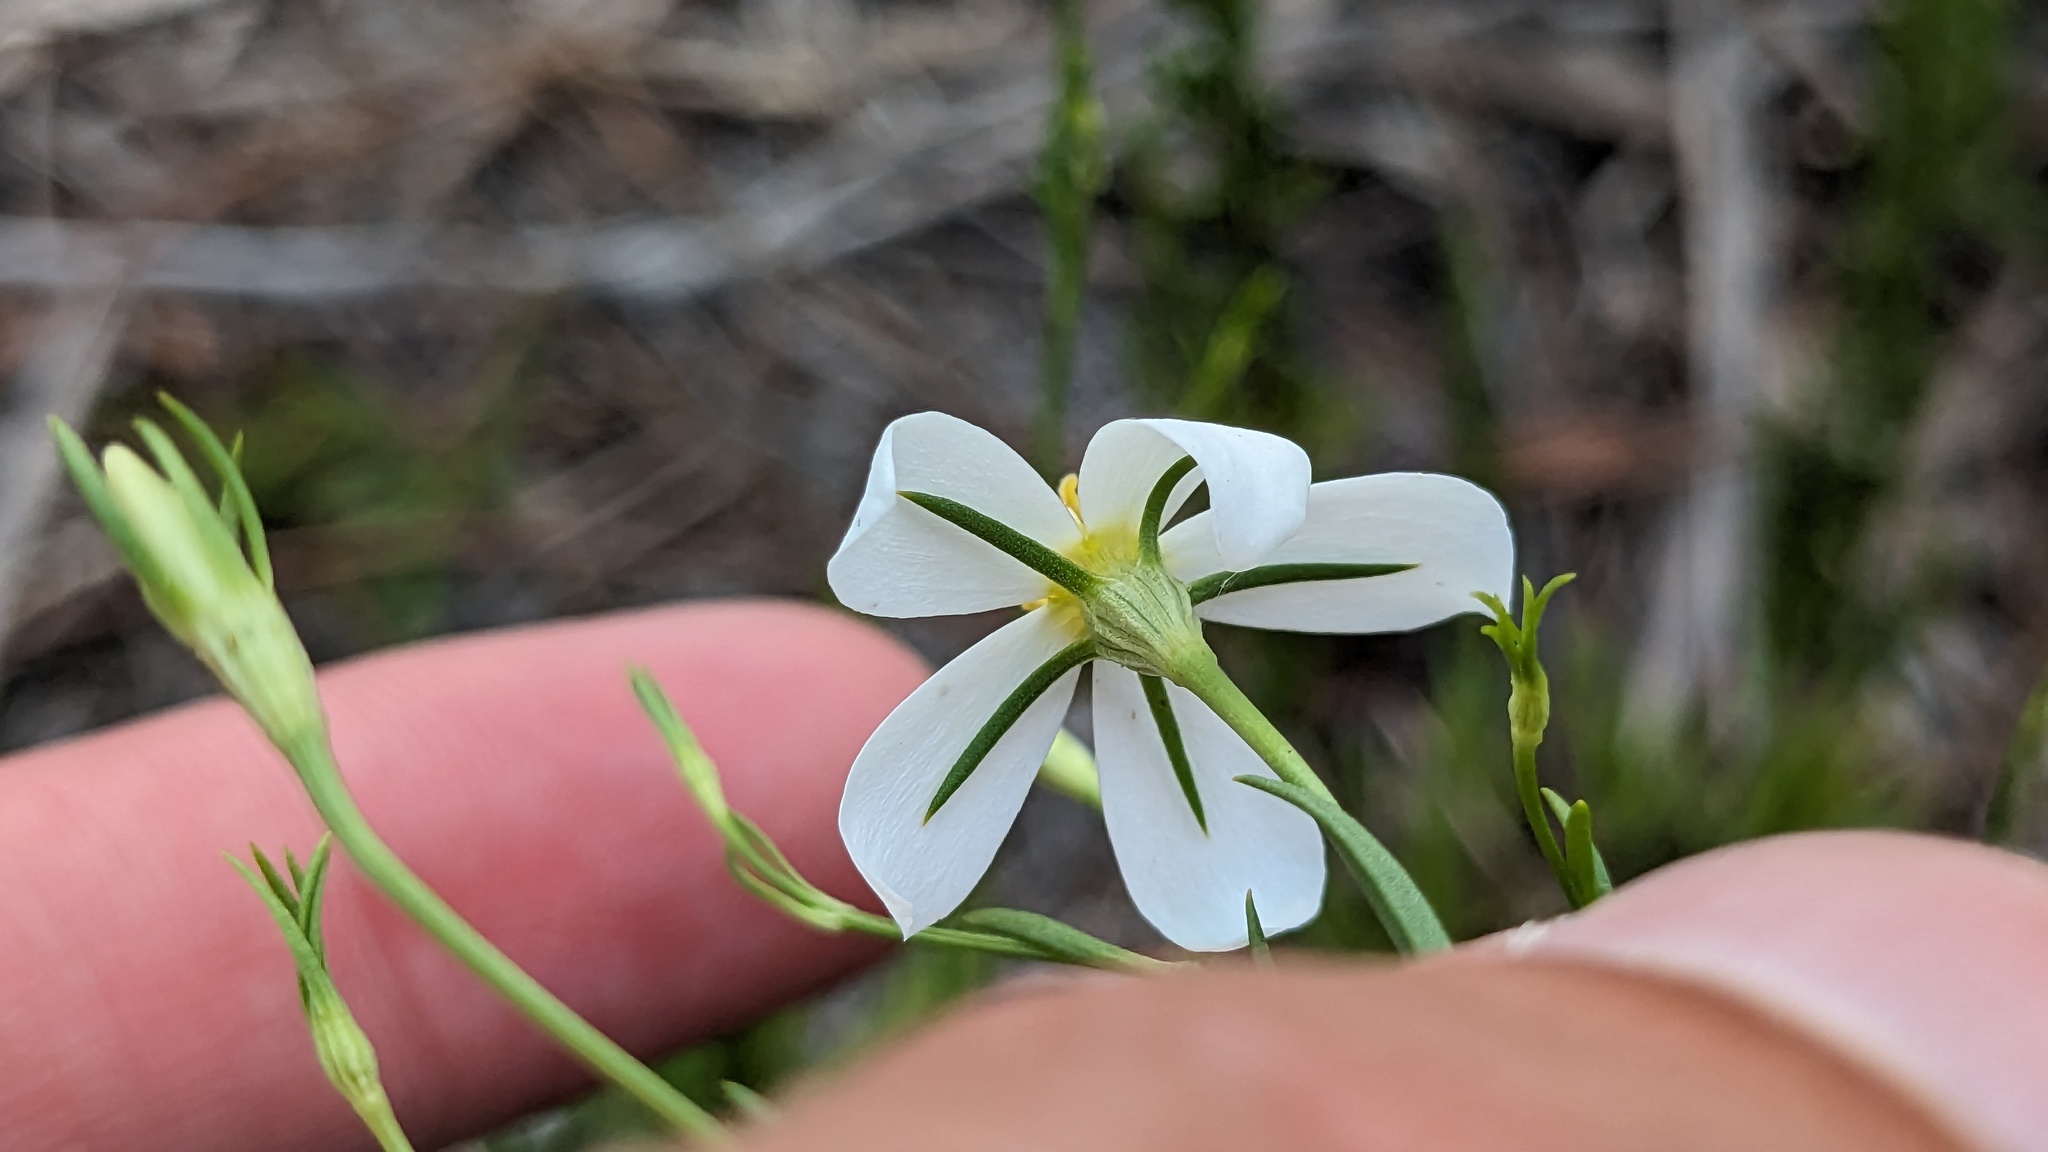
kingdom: Plantae
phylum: Tracheophyta
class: Magnoliopsida
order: Gentianales
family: Gentianaceae
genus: Sabatia
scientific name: Sabatia brevifolia
